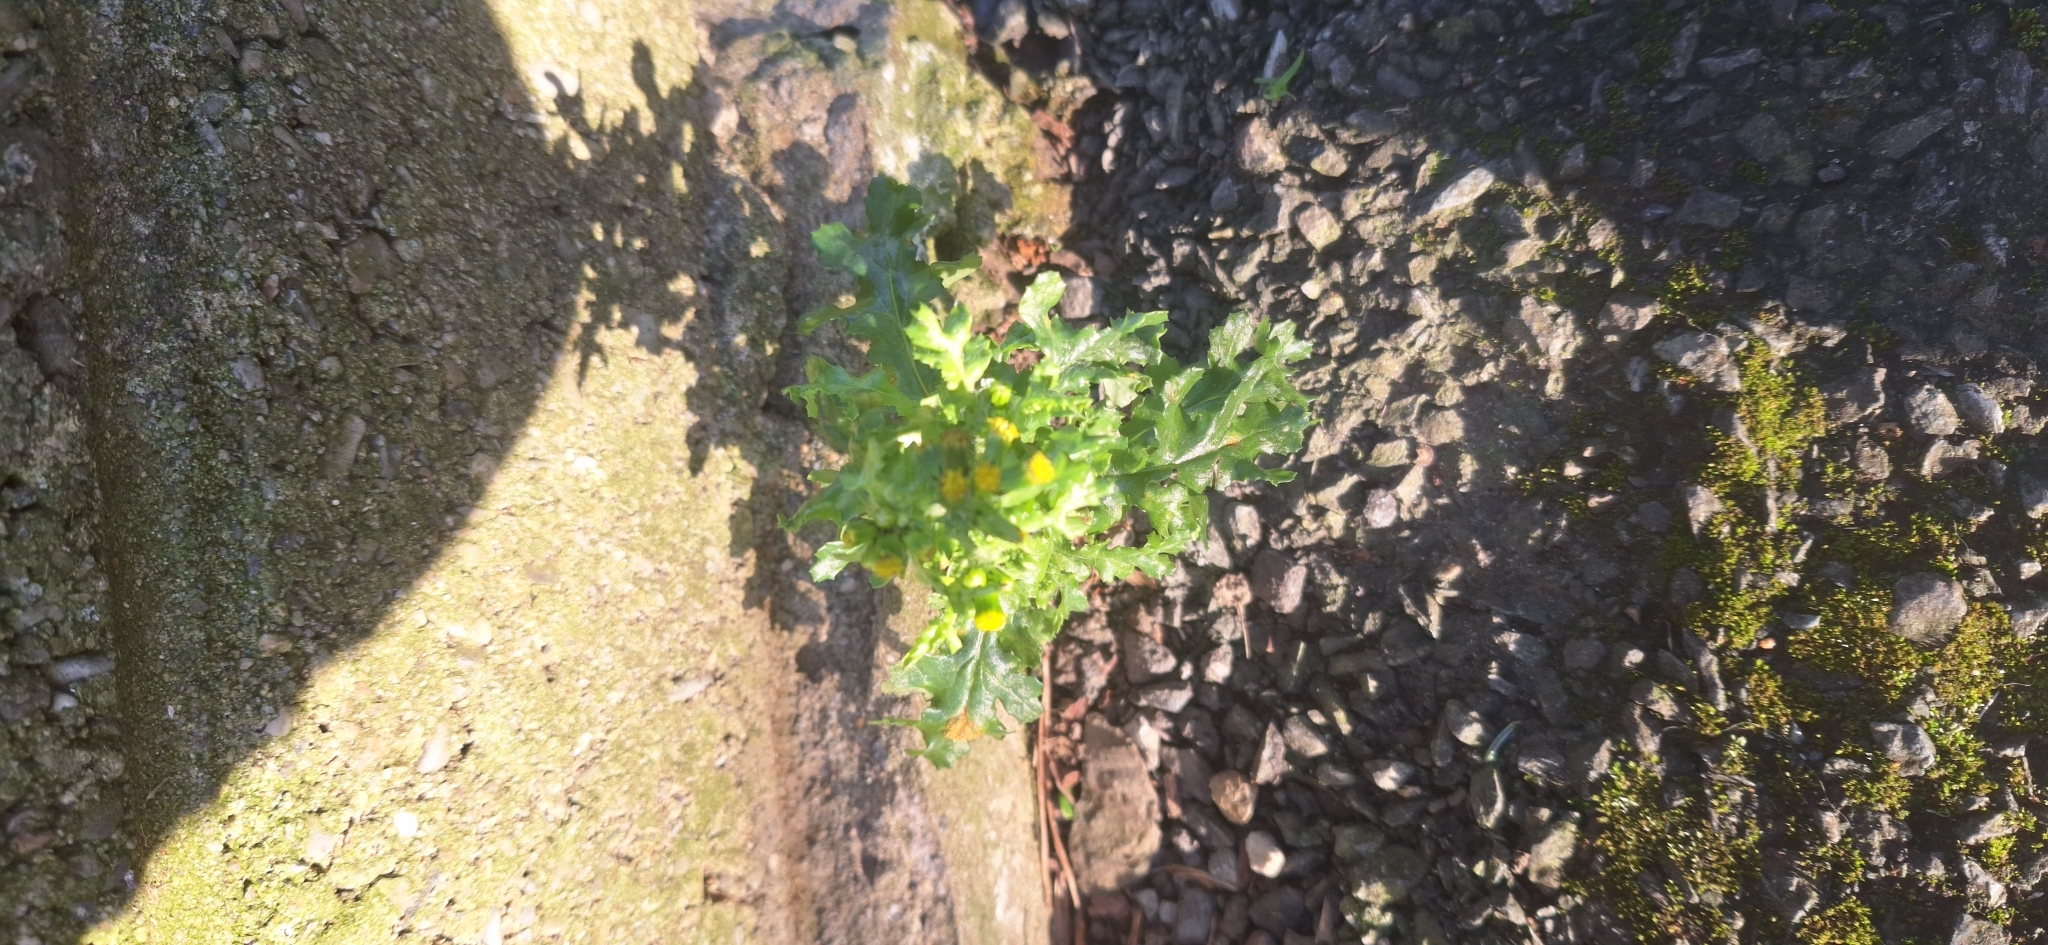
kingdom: Plantae
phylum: Tracheophyta
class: Magnoliopsida
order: Asterales
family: Asteraceae
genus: Senecio
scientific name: Senecio vulgaris
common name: Old-man-in-the-spring
